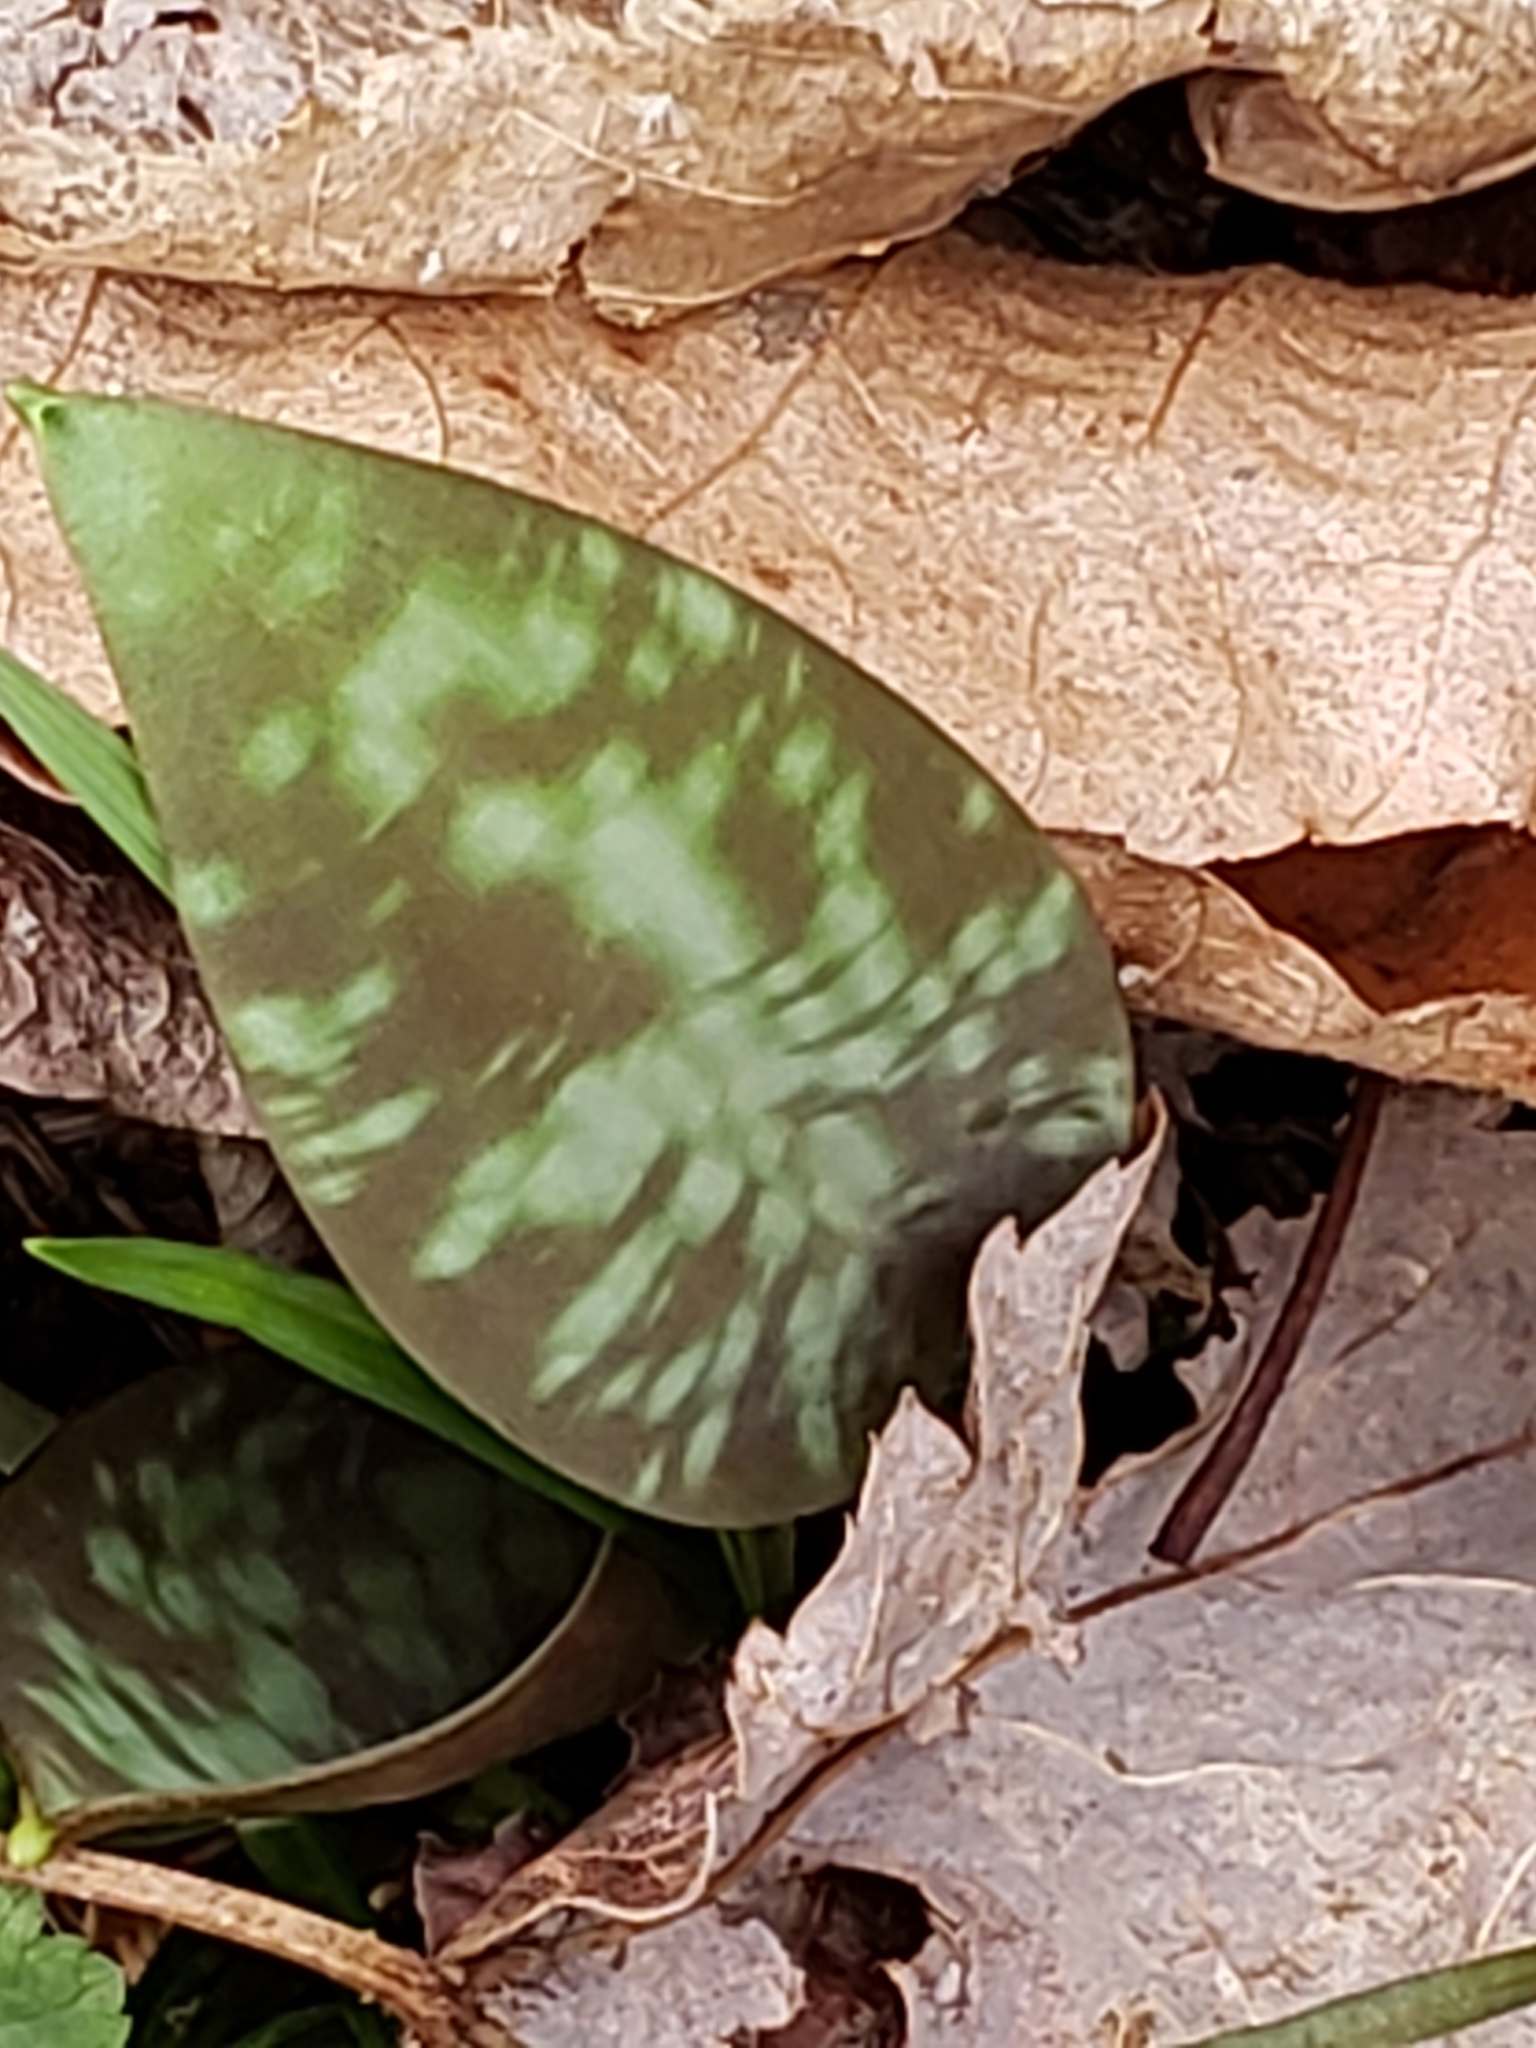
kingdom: Plantae
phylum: Tracheophyta
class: Liliopsida
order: Liliales
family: Liliaceae
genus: Erythronium
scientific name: Erythronium americanum
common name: Yellow adder's-tongue
